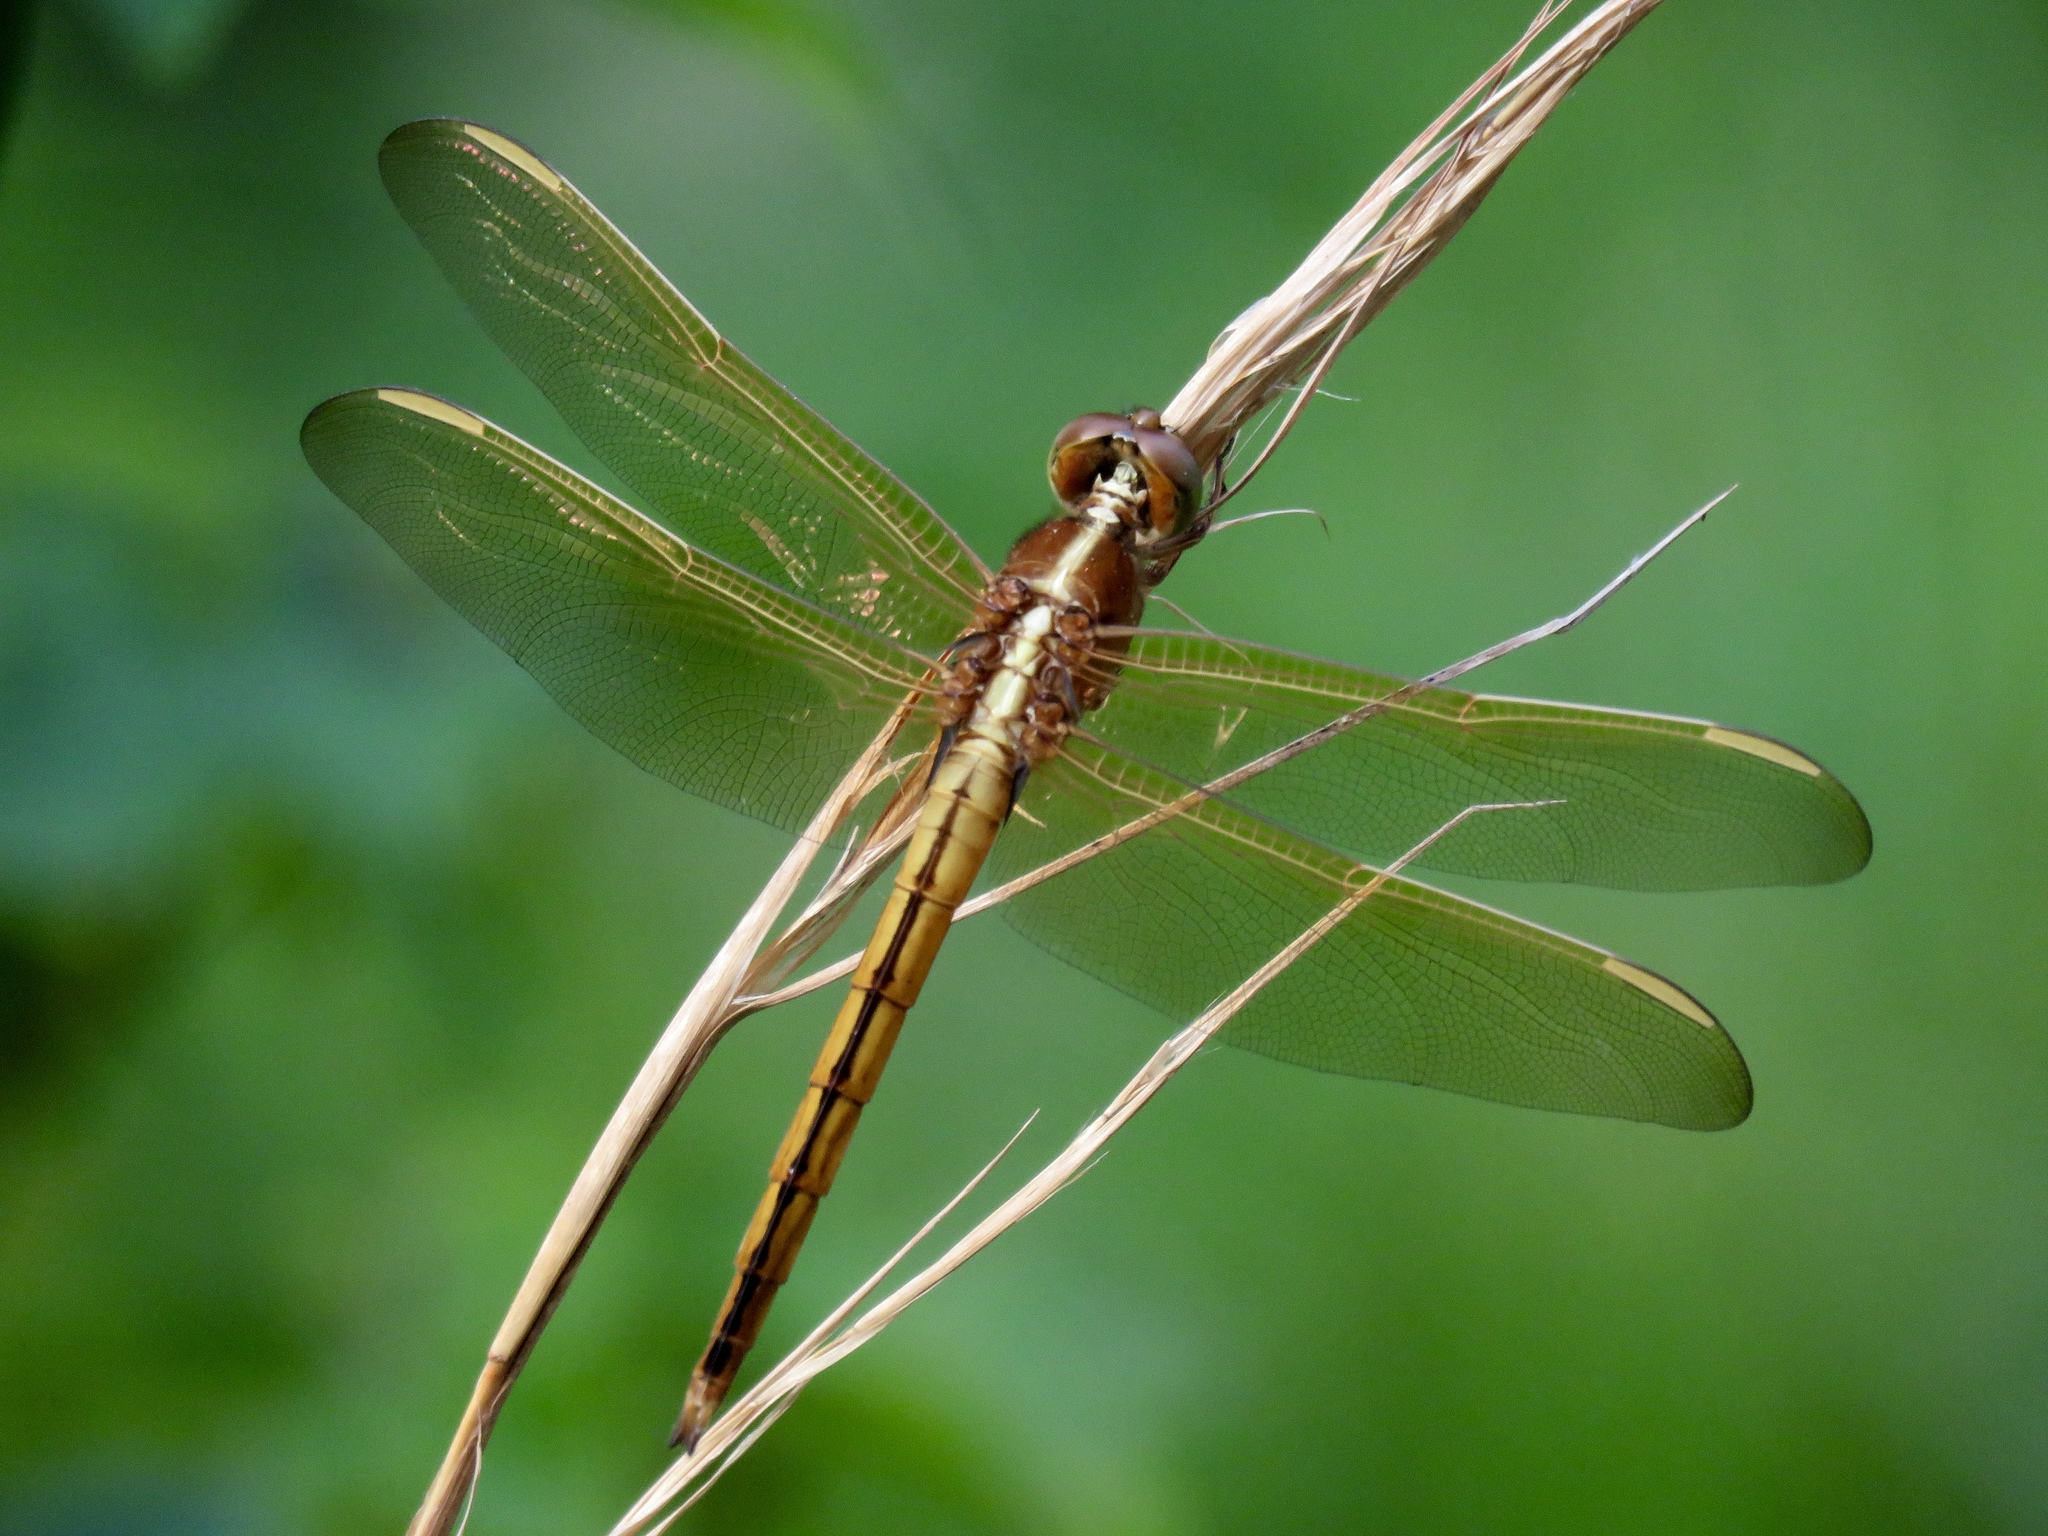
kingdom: Animalia
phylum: Arthropoda
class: Insecta
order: Odonata
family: Libellulidae
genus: Libellula
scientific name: Libellula needhami
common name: Needham's skimmer
